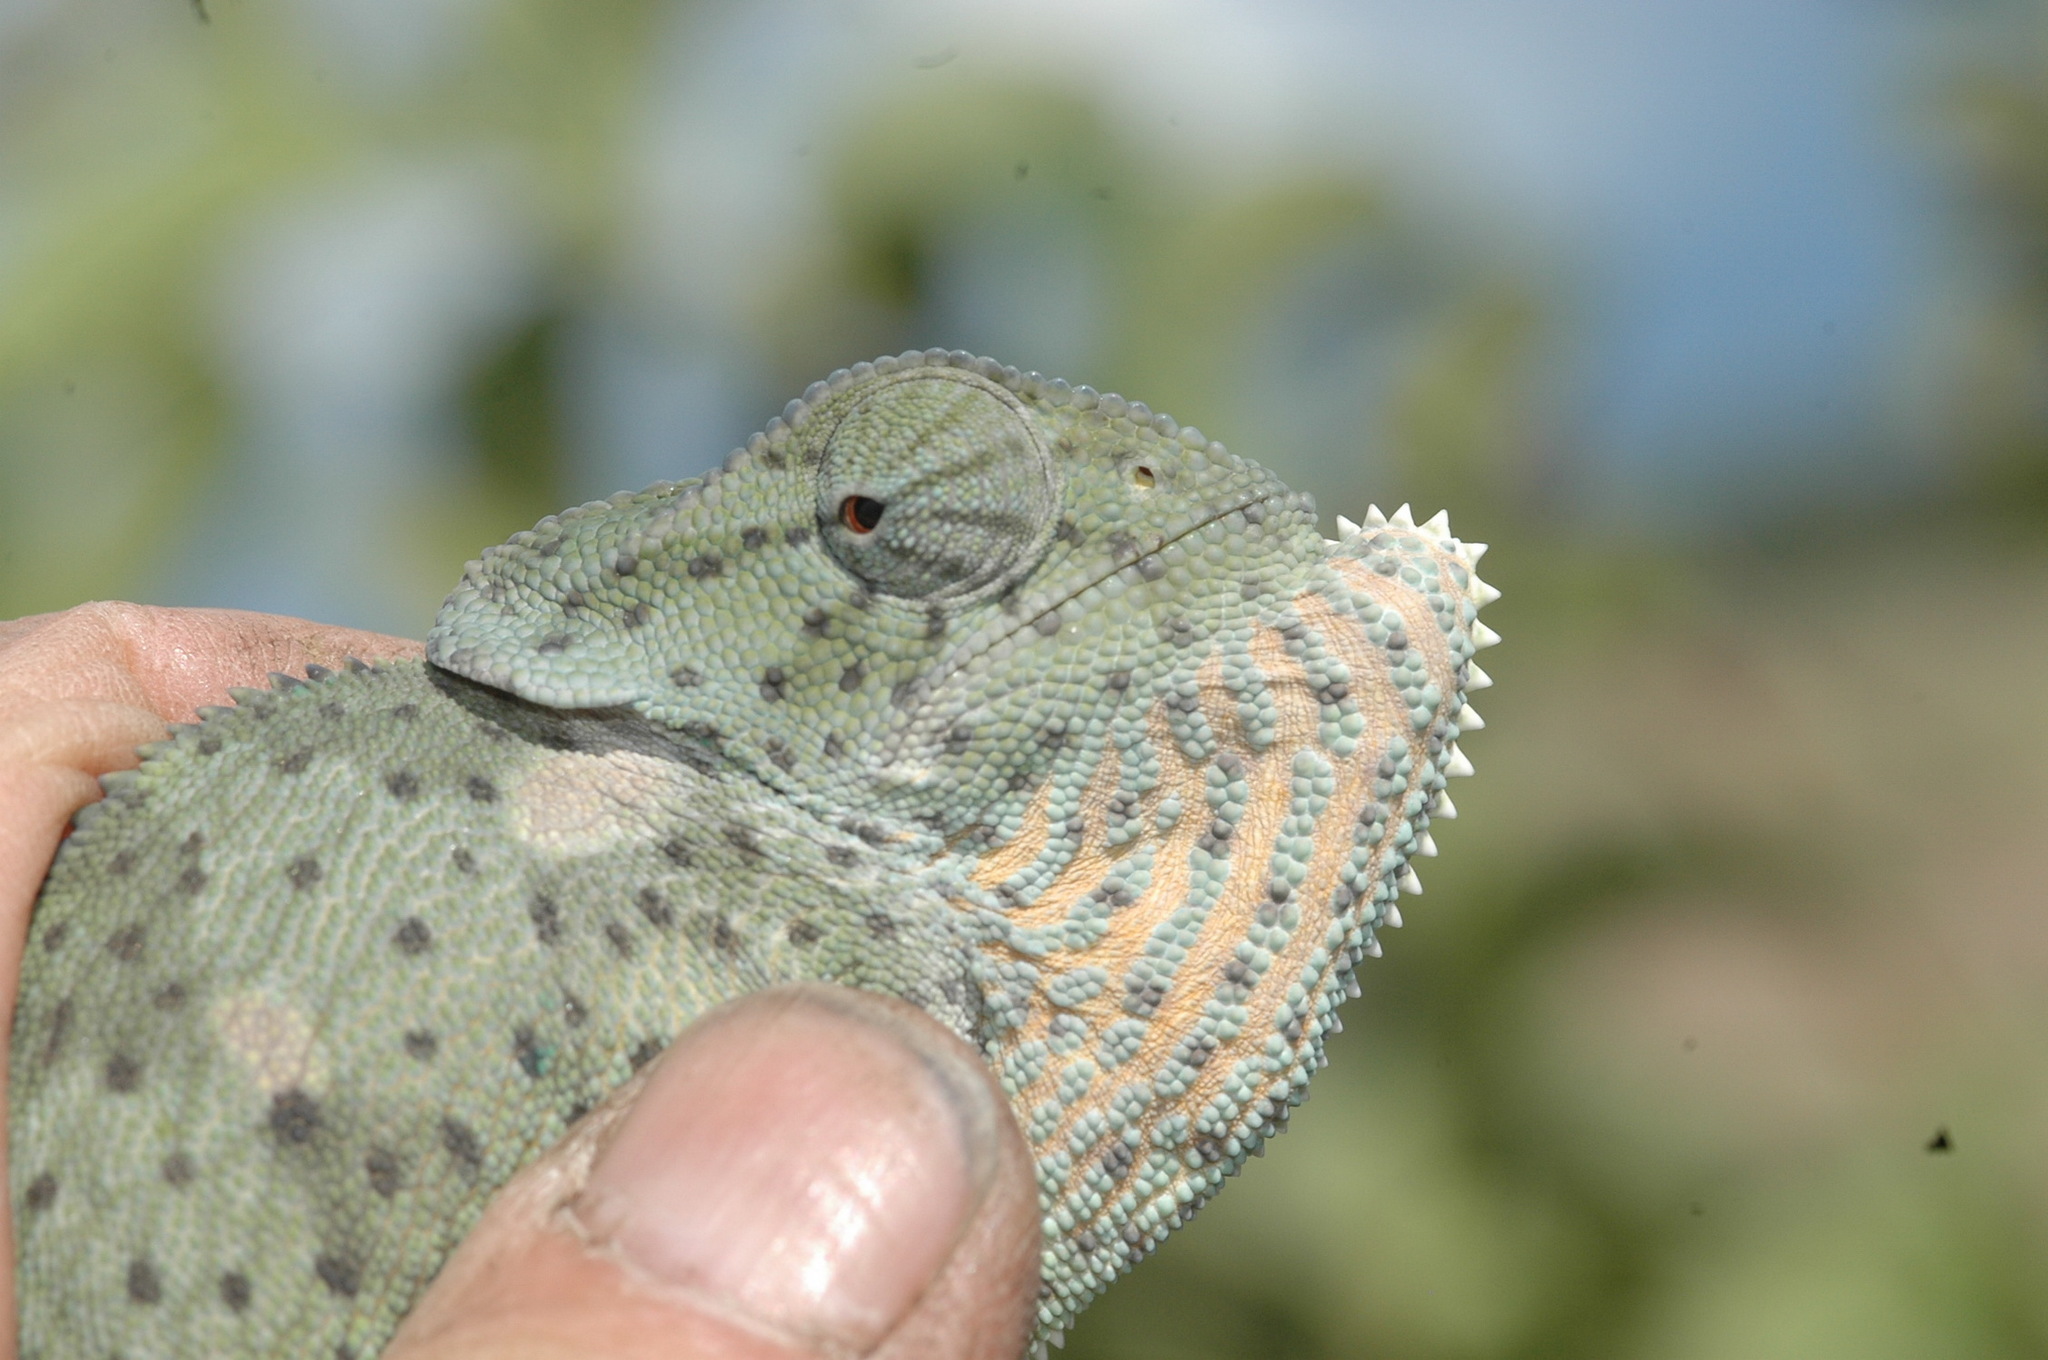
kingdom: Animalia
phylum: Chordata
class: Squamata
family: Chamaeleonidae
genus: Chamaeleo
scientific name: Chamaeleo dilepis
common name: Flapneck chameleon
